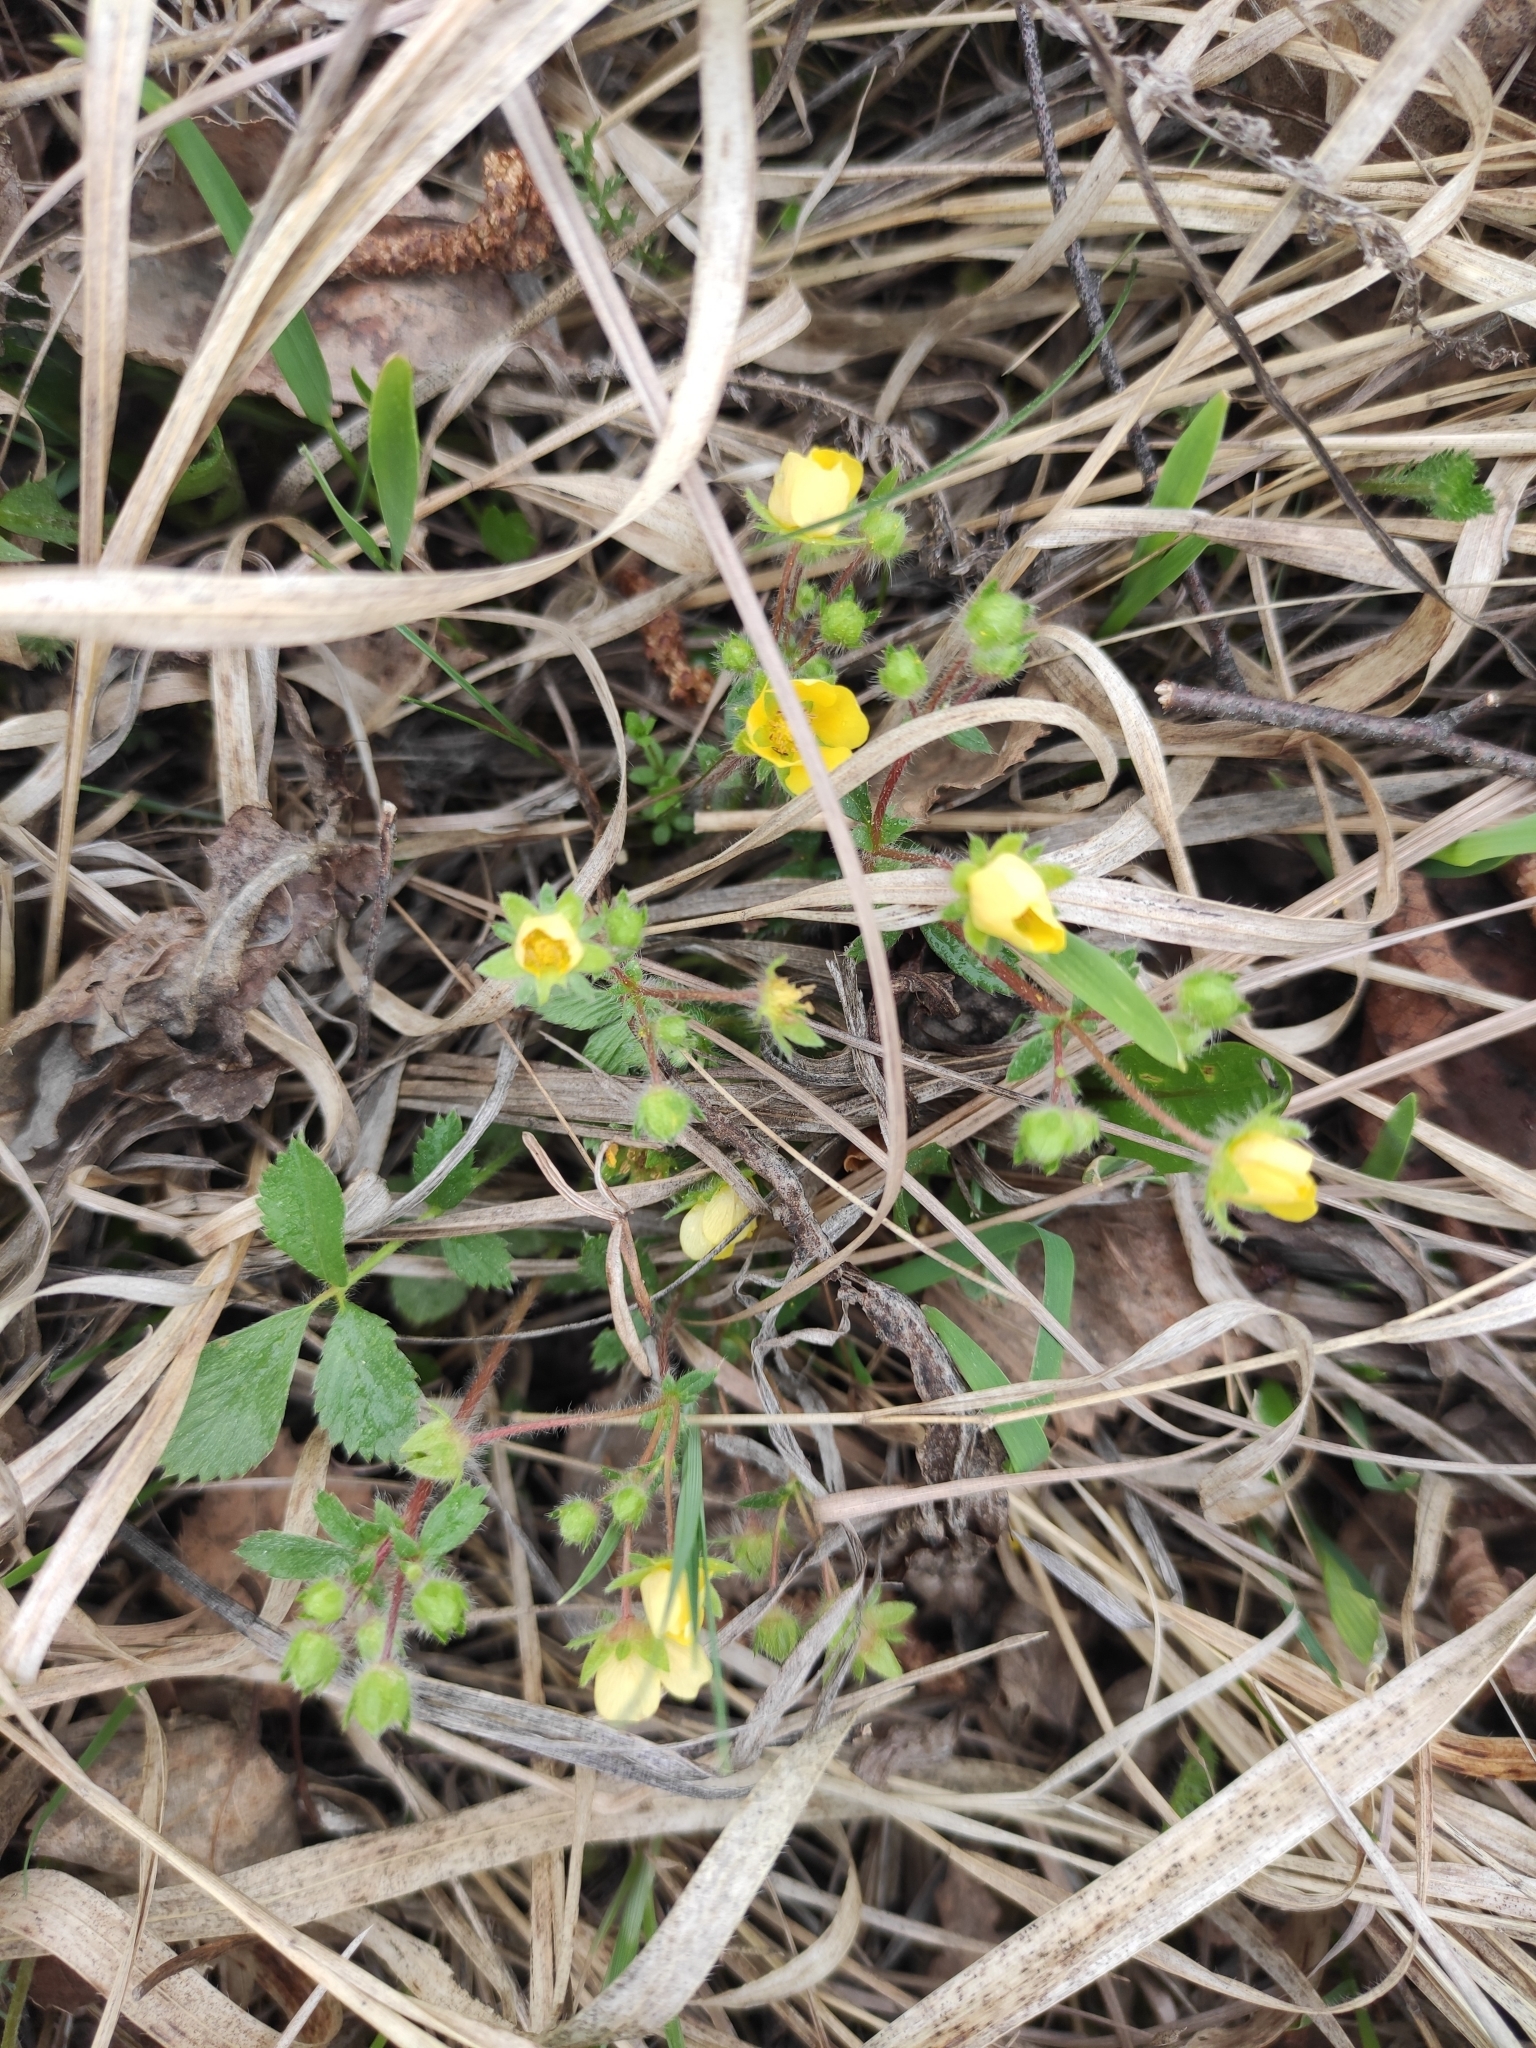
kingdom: Plantae
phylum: Tracheophyta
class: Magnoliopsida
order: Rosales
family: Rosaceae
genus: Potentilla
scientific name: Potentilla fragarioides
